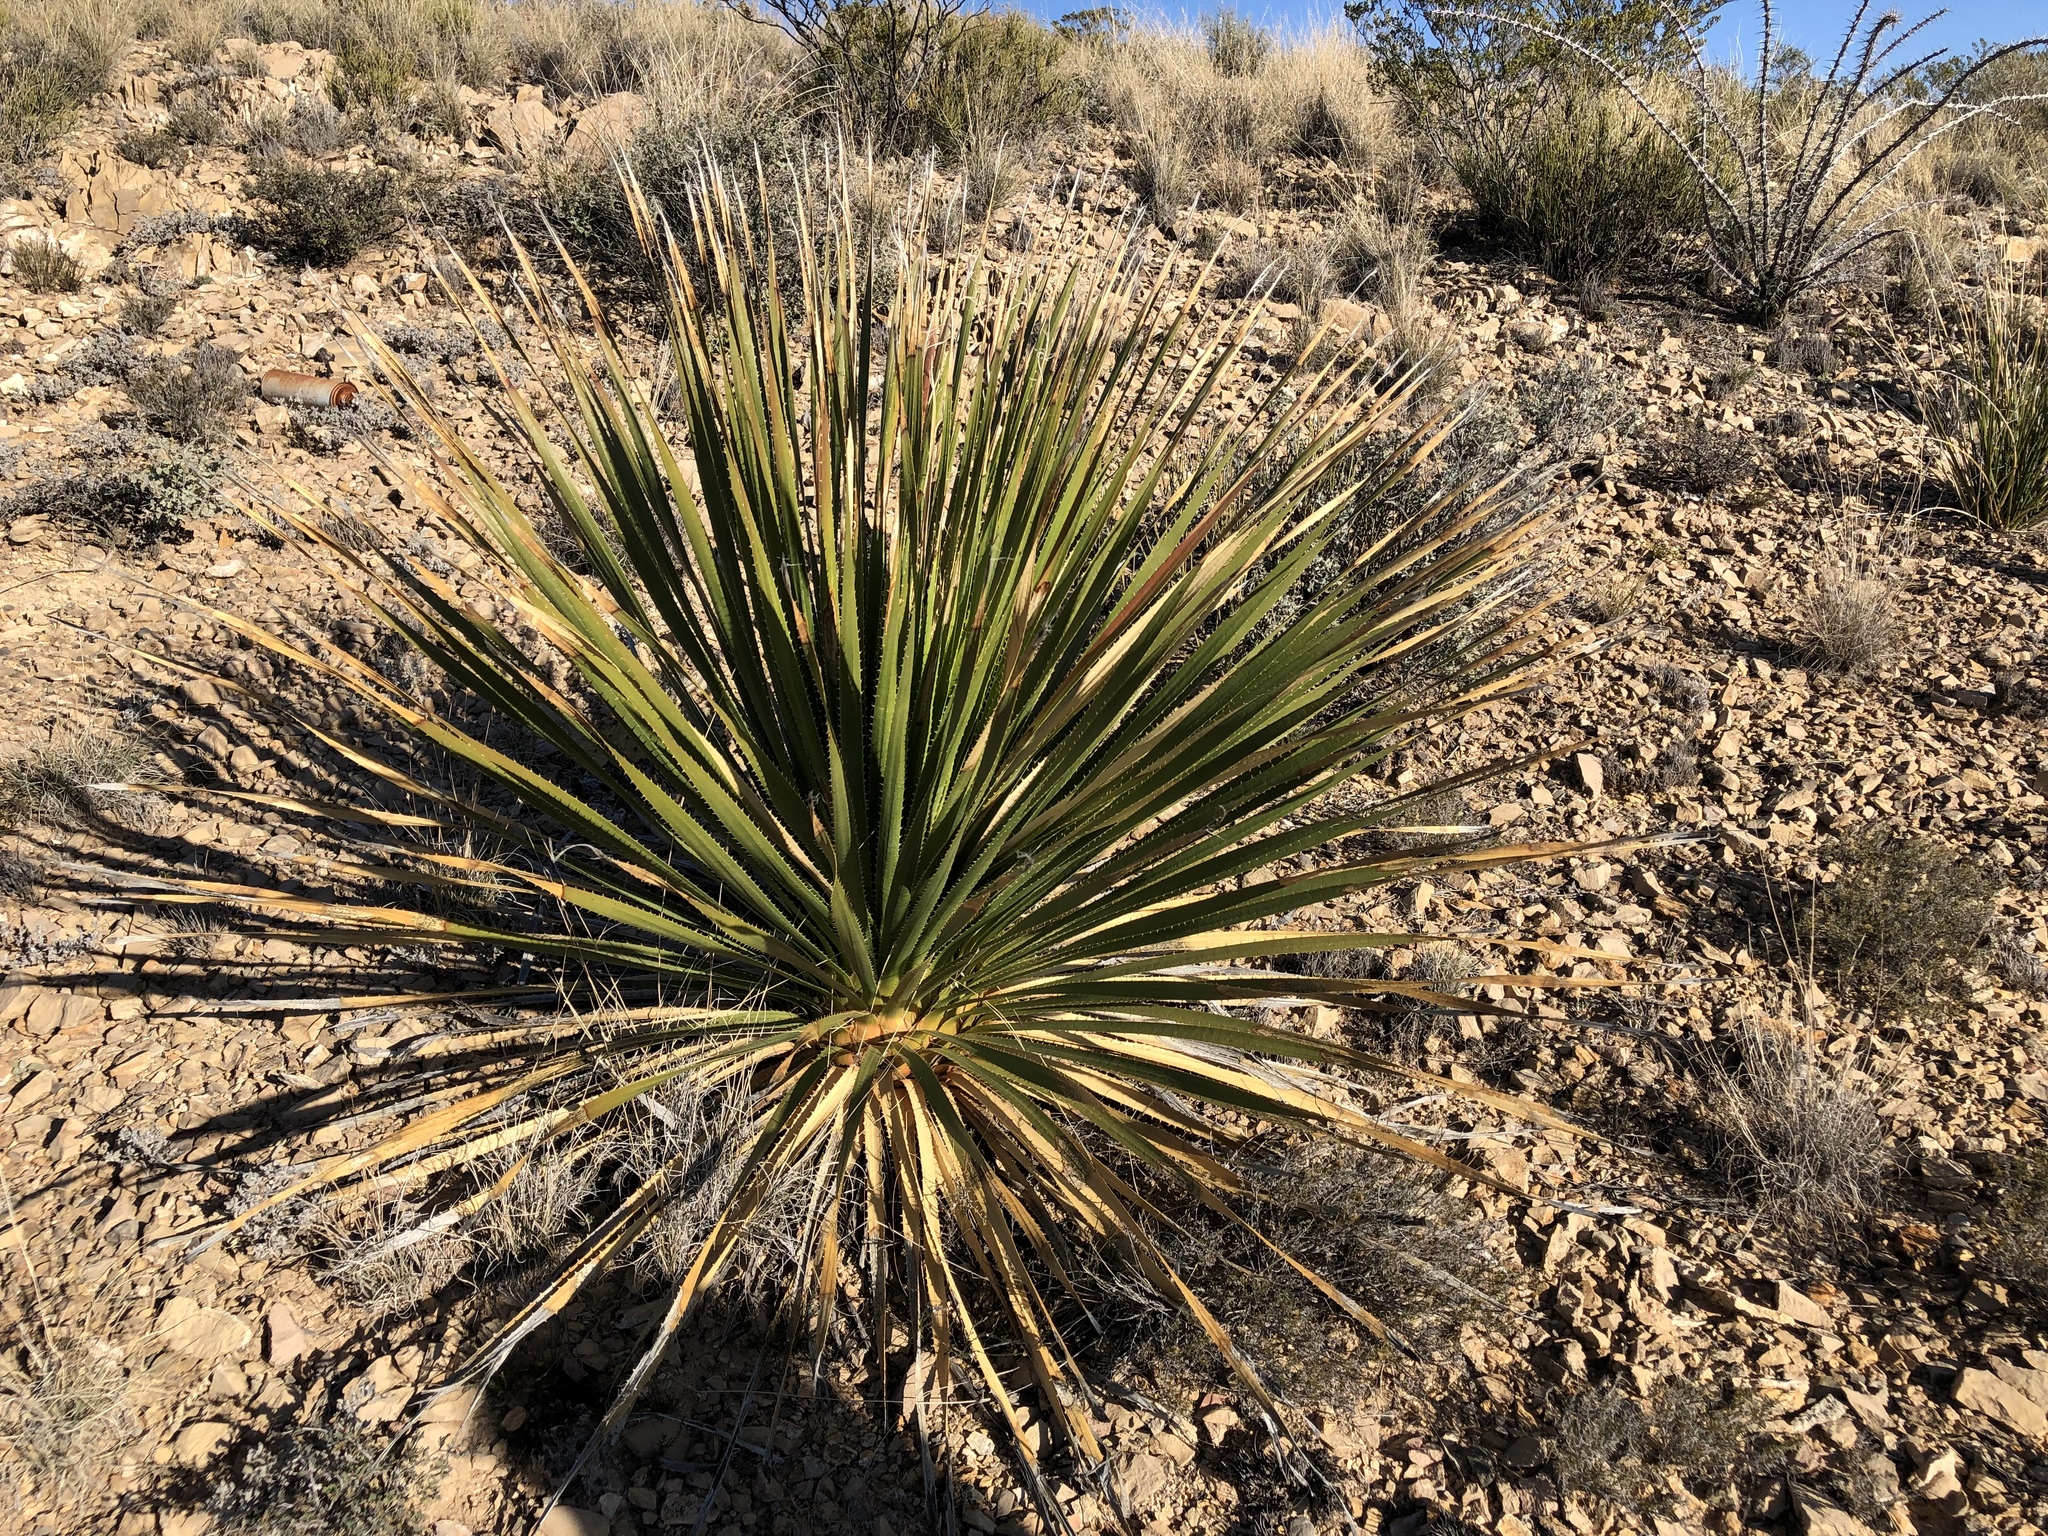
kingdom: Plantae
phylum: Tracheophyta
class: Liliopsida
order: Asparagales
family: Asparagaceae
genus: Dasylirion
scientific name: Dasylirion wheeleri
